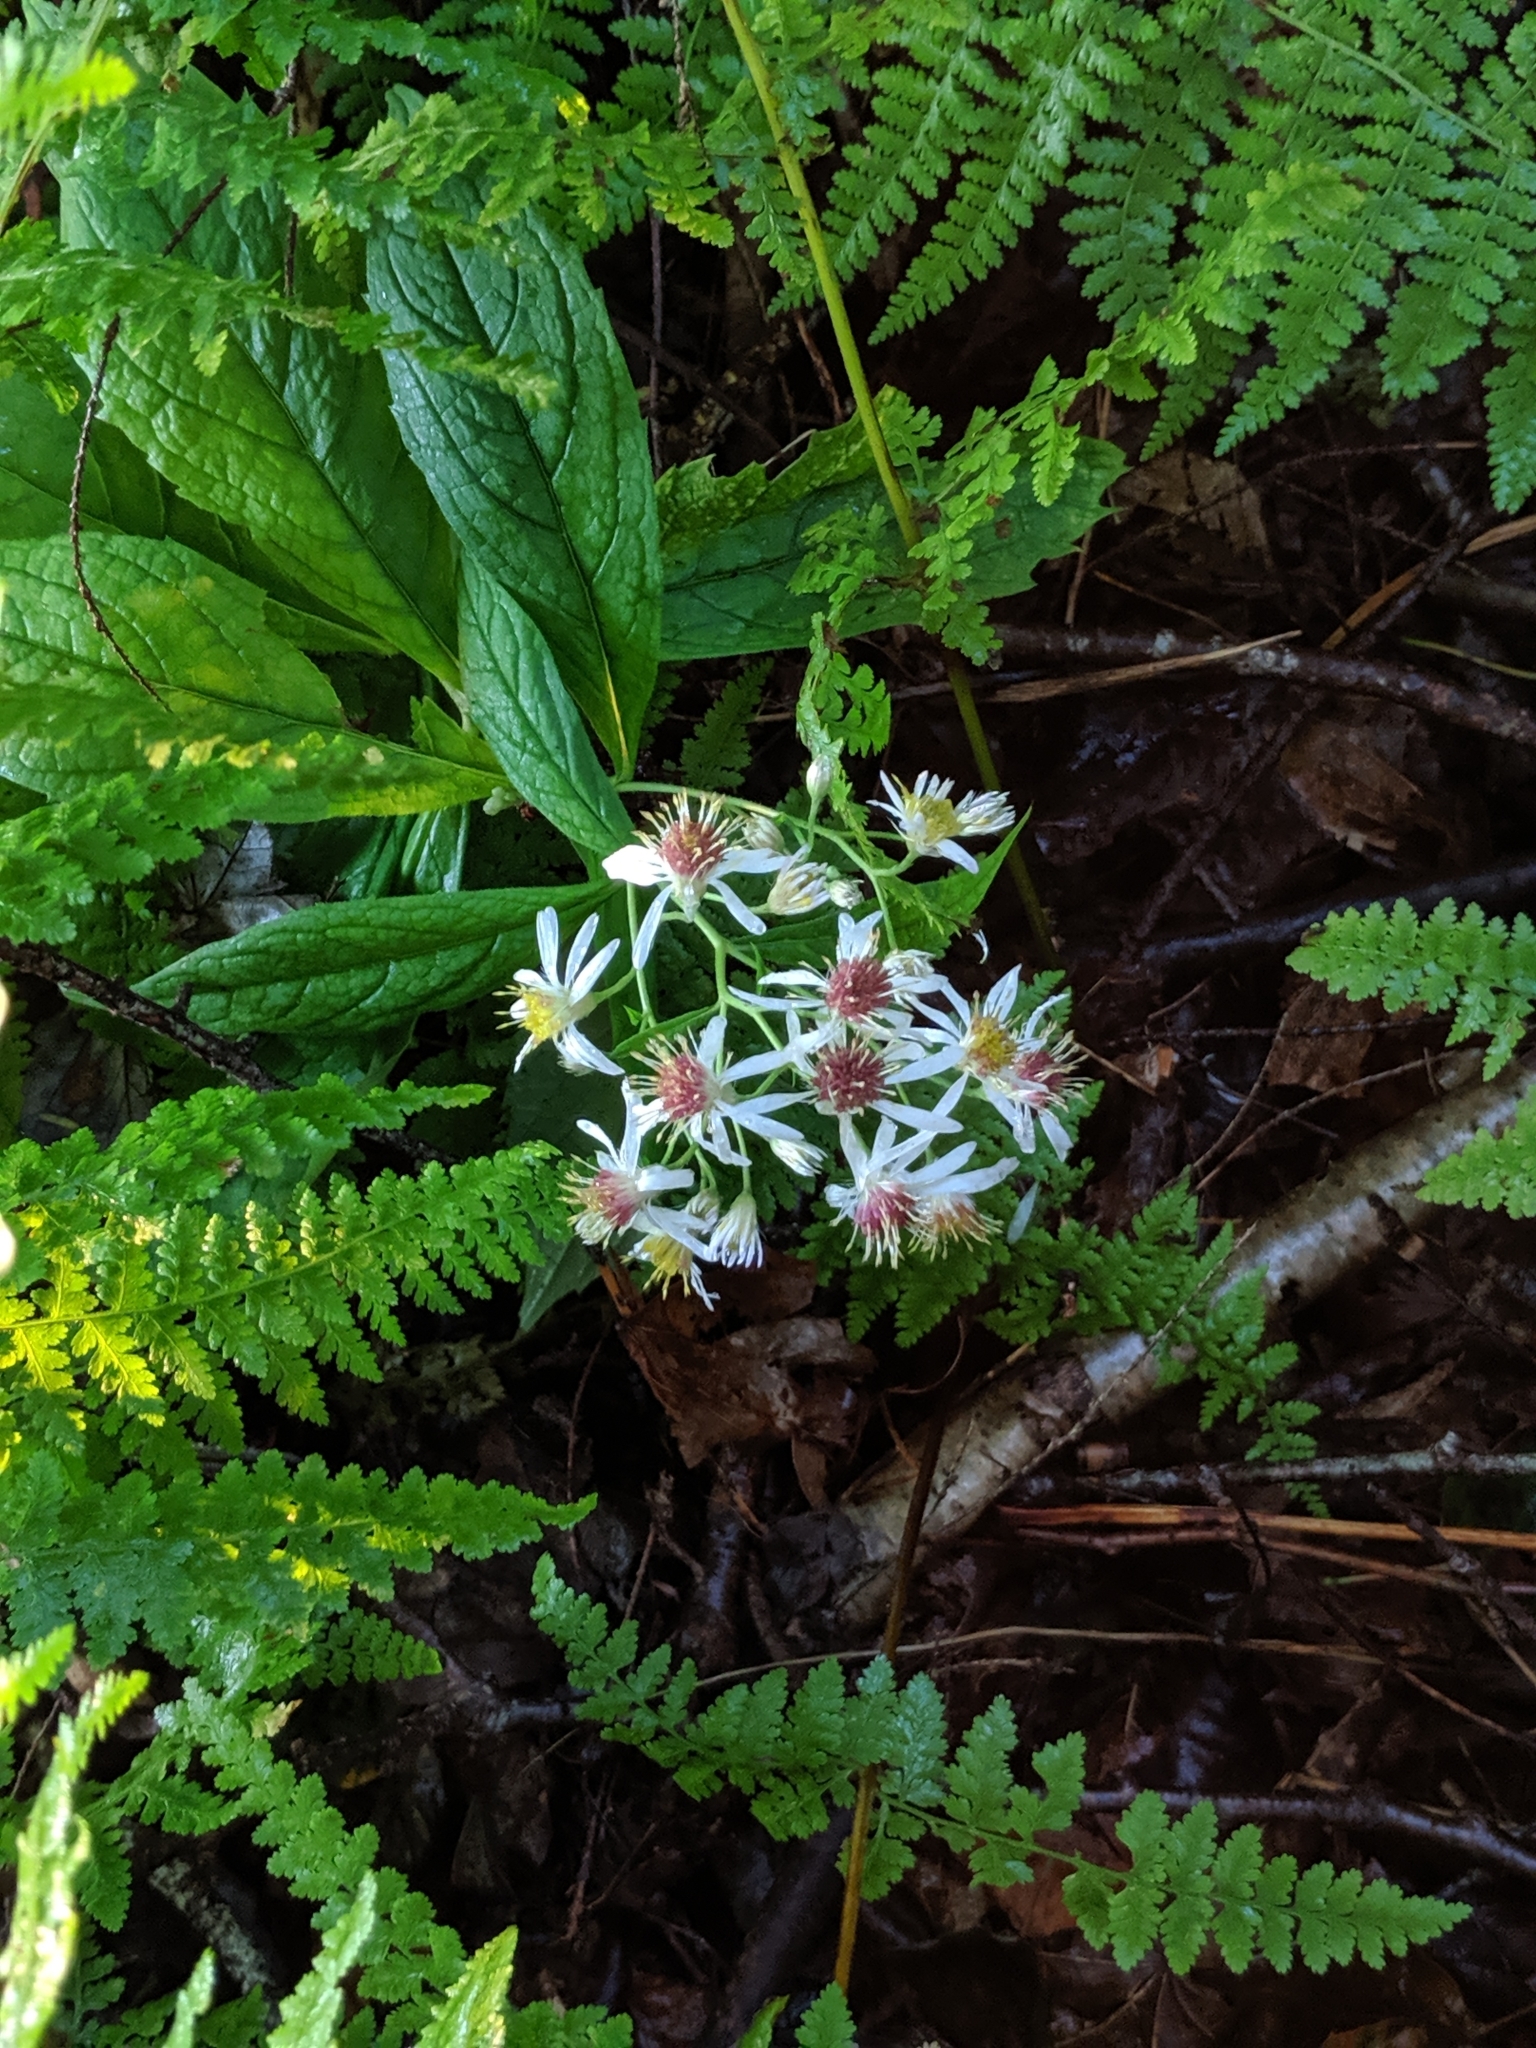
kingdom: Plantae
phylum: Tracheophyta
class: Magnoliopsida
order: Asterales
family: Asteraceae
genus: Oclemena
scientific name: Oclemena acuminata
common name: Mountain aster
